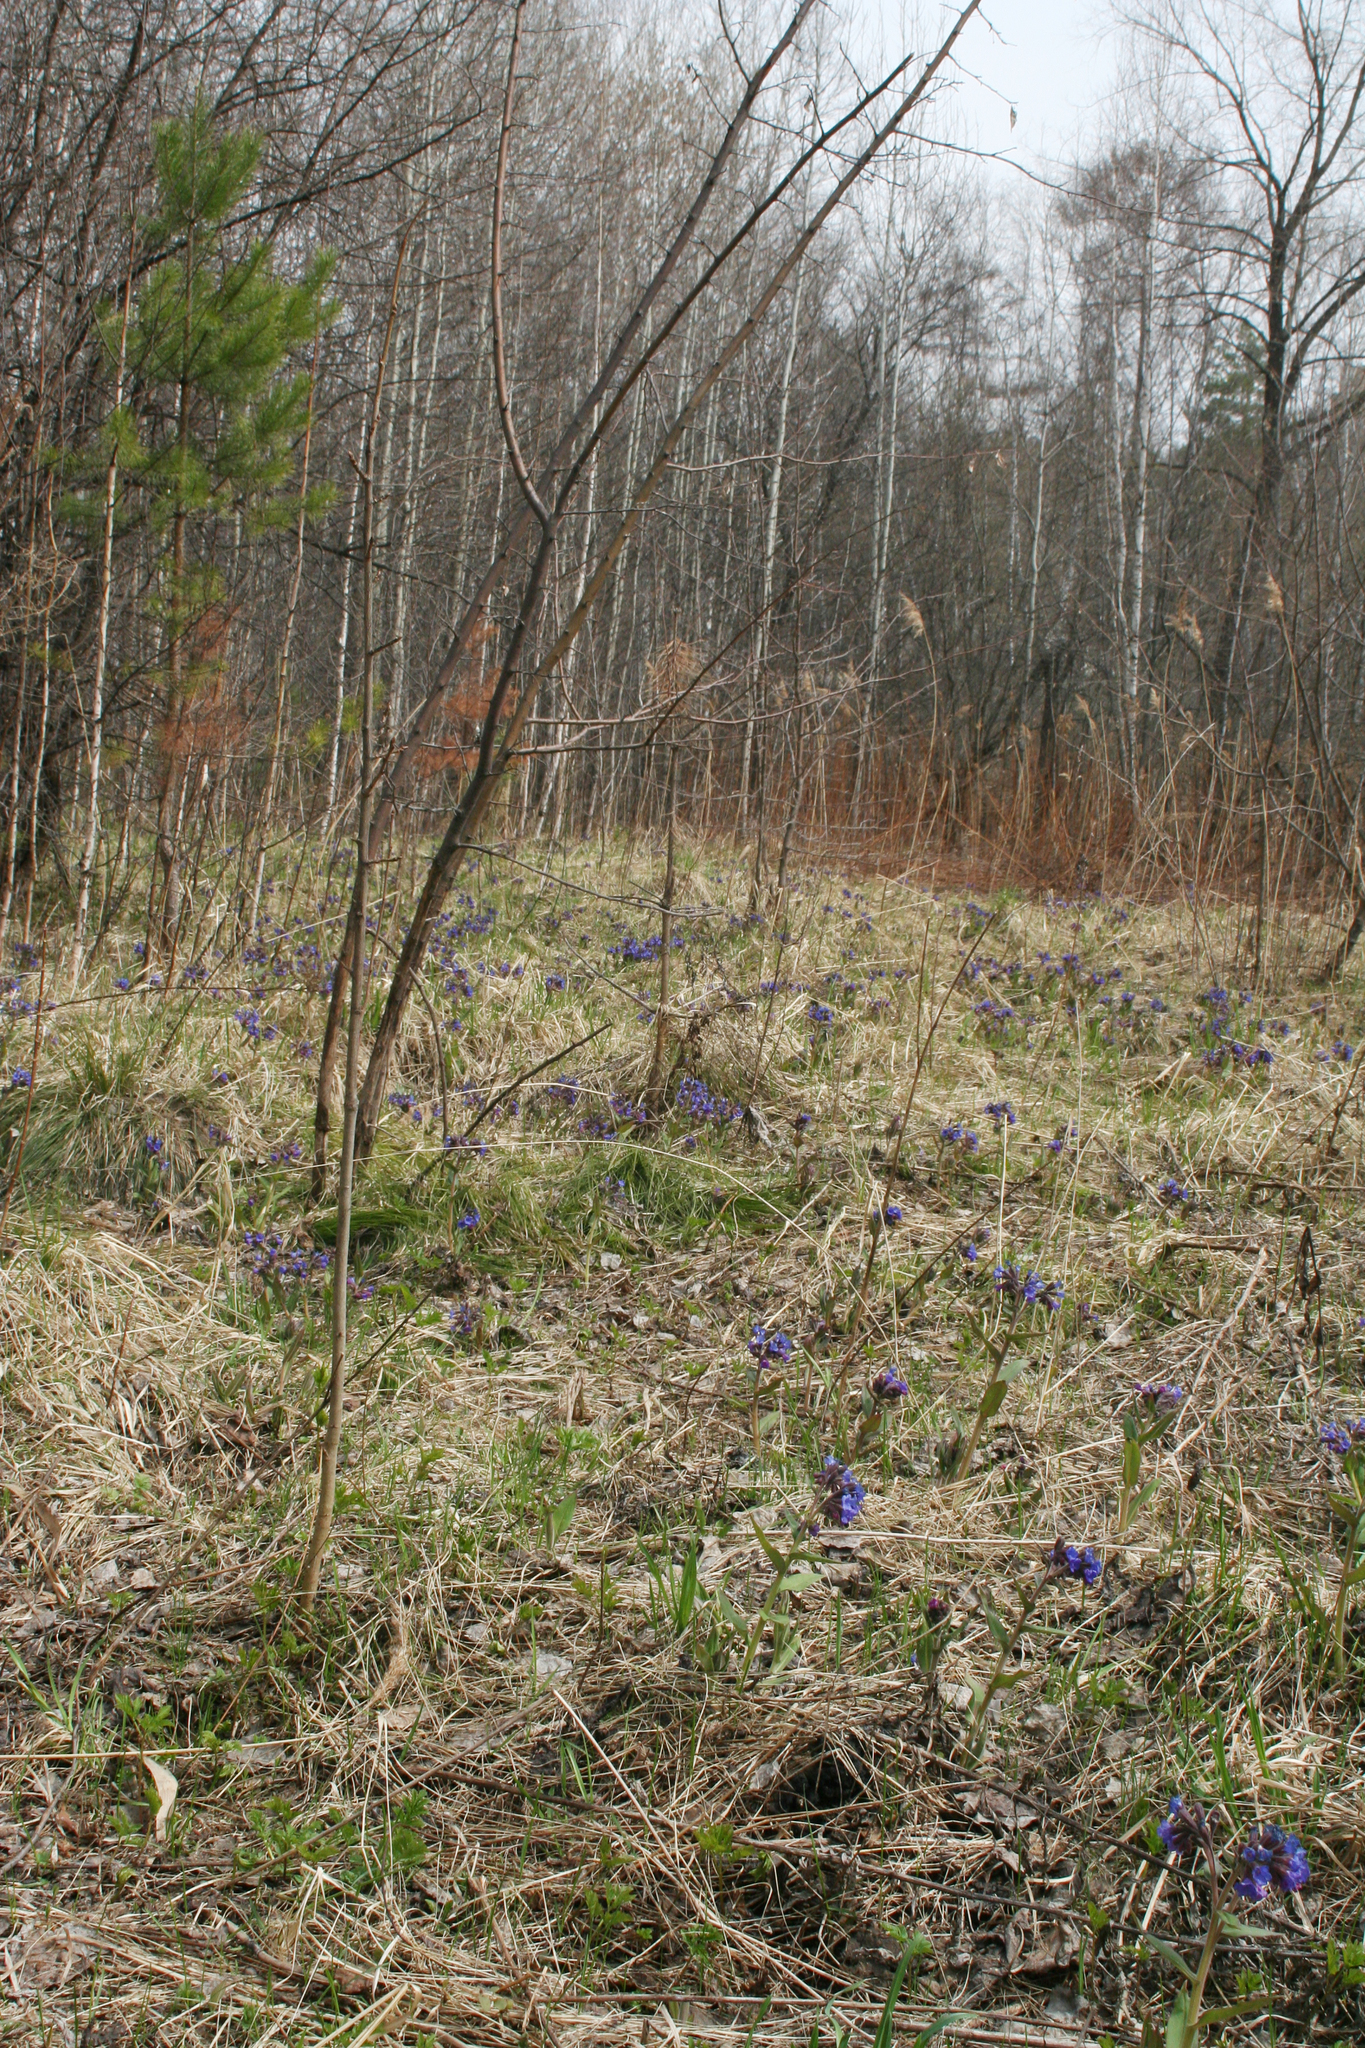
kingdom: Plantae
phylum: Tracheophyta
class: Magnoliopsida
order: Boraginales
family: Boraginaceae
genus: Pulmonaria
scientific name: Pulmonaria mollis
